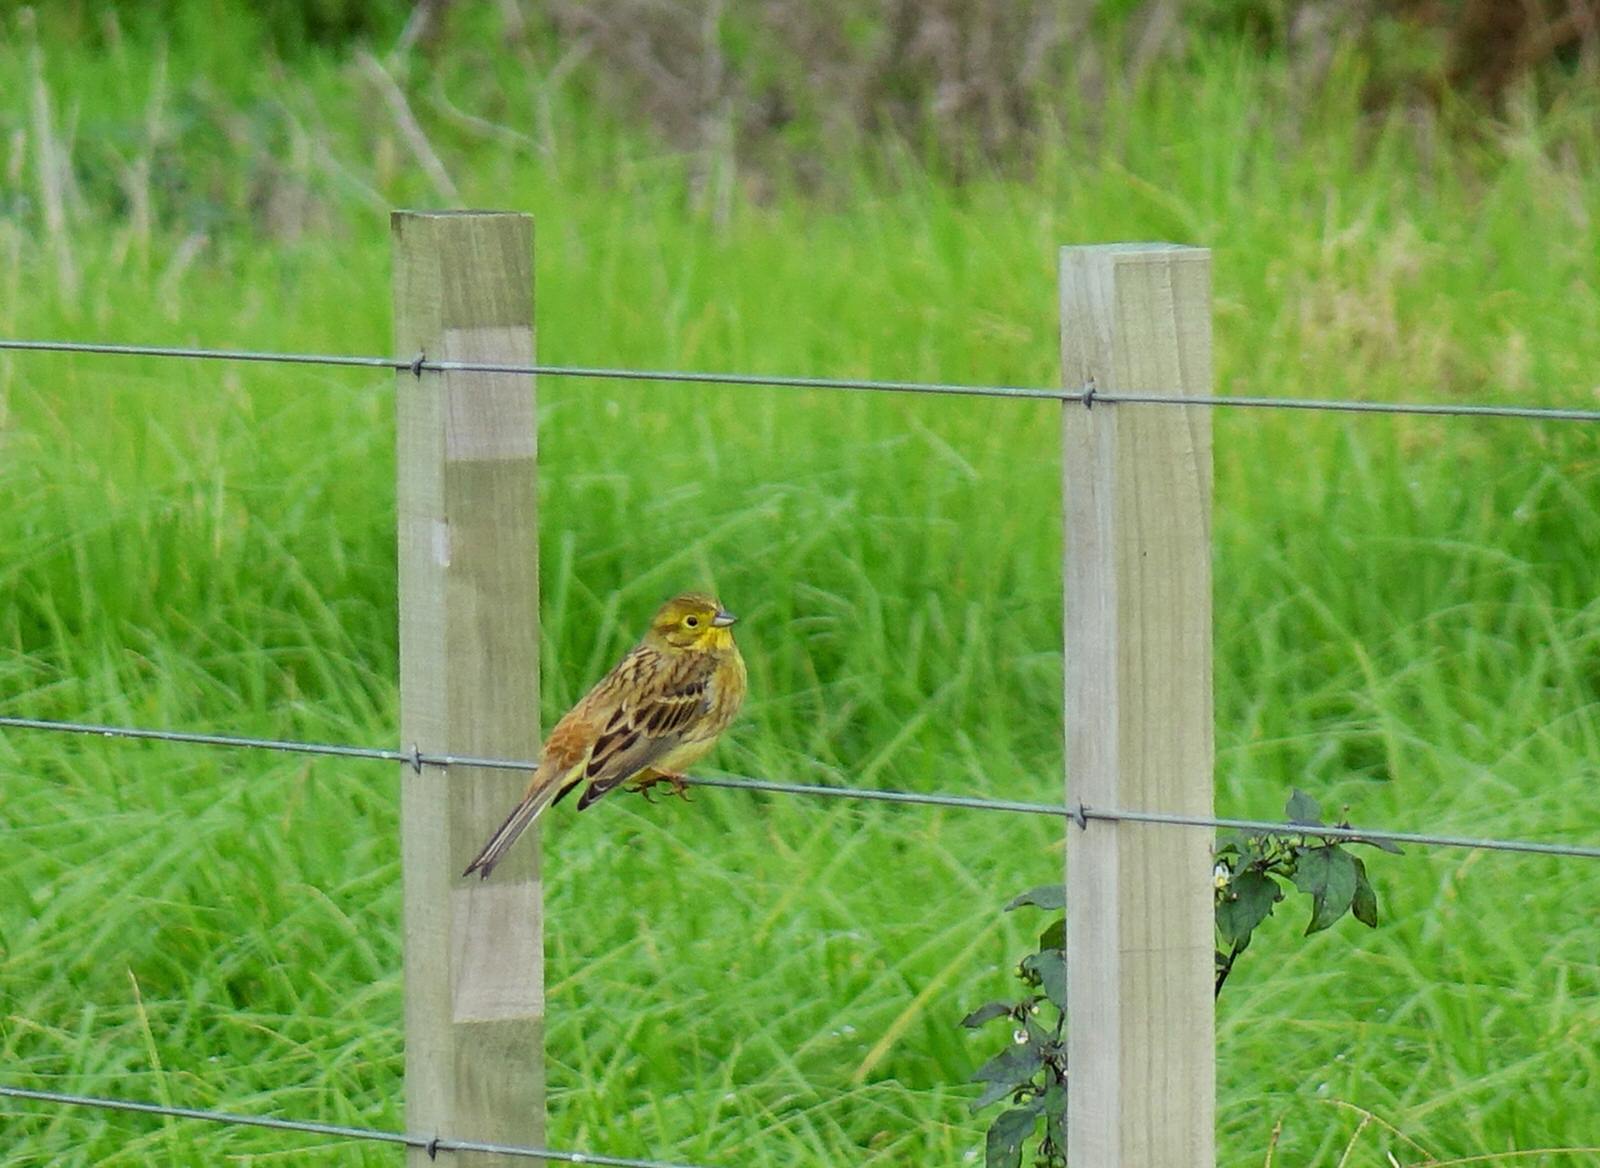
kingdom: Animalia
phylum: Chordata
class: Aves
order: Passeriformes
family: Emberizidae
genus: Emberiza
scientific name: Emberiza citrinella
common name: Yellowhammer
